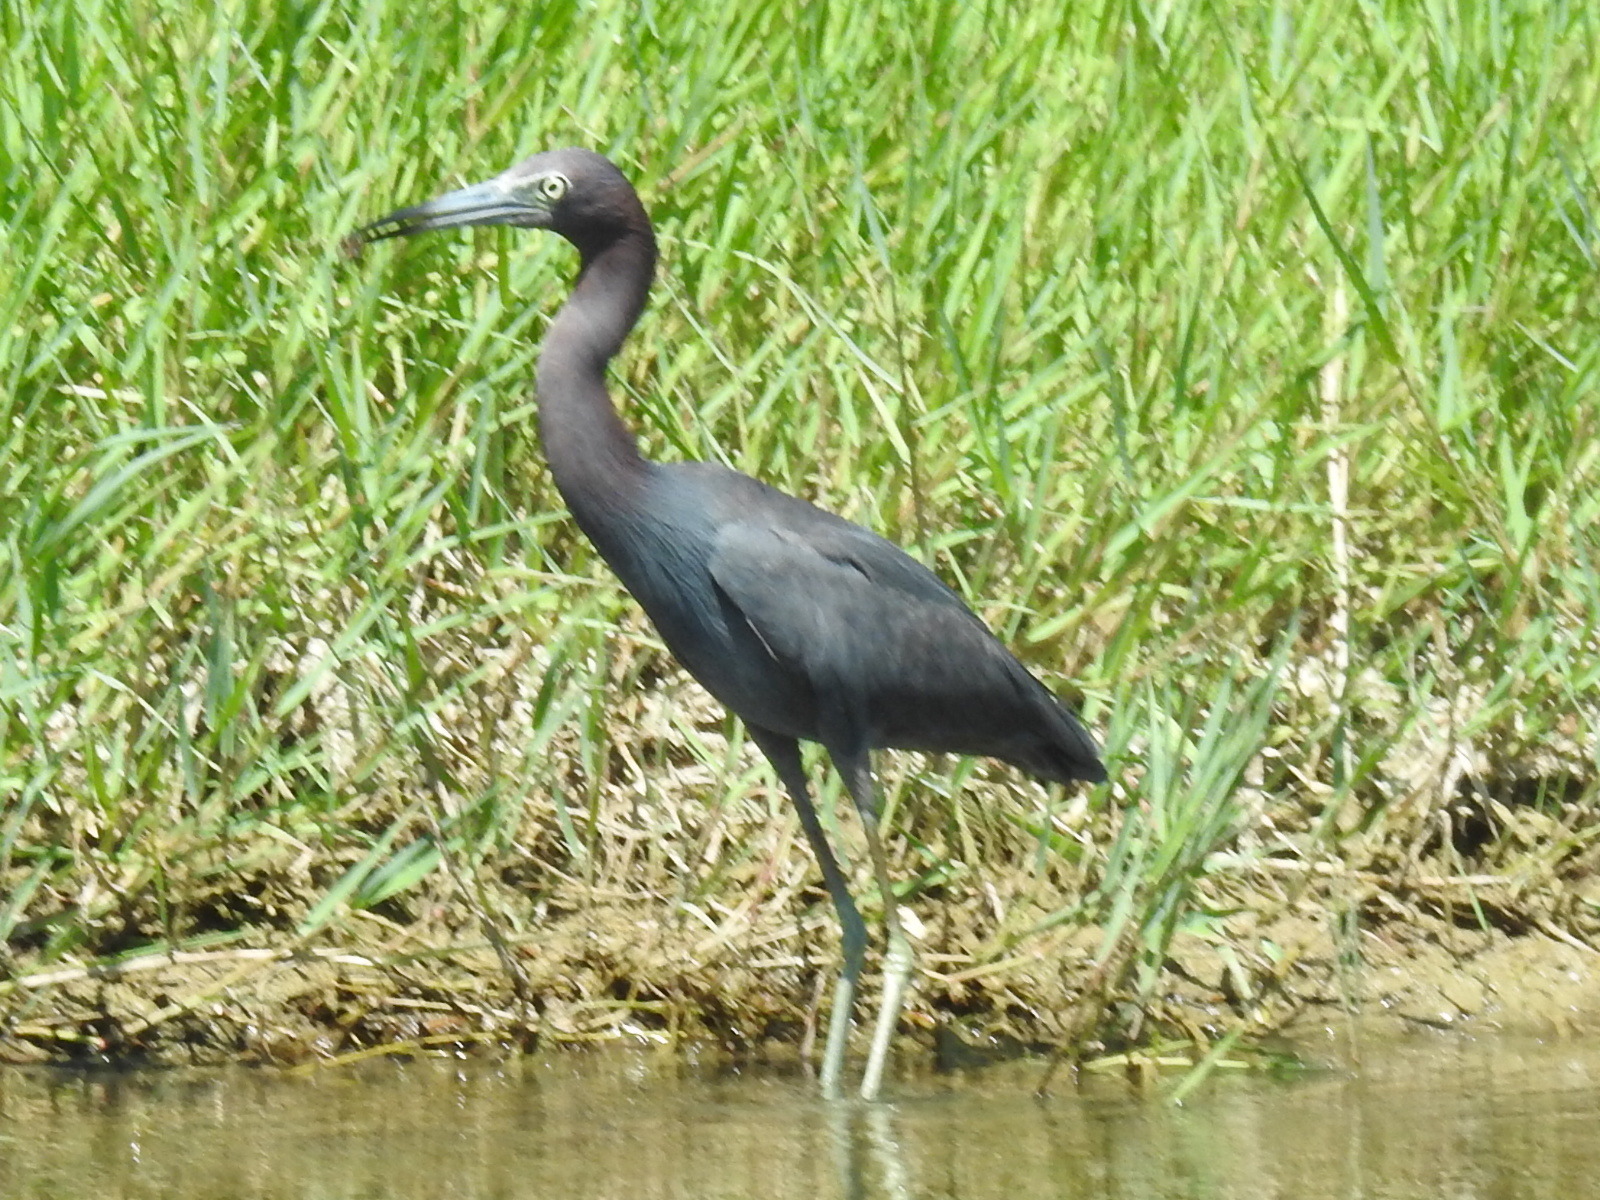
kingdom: Animalia
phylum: Chordata
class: Aves
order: Pelecaniformes
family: Ardeidae
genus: Egretta
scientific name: Egretta caerulea
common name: Little blue heron
